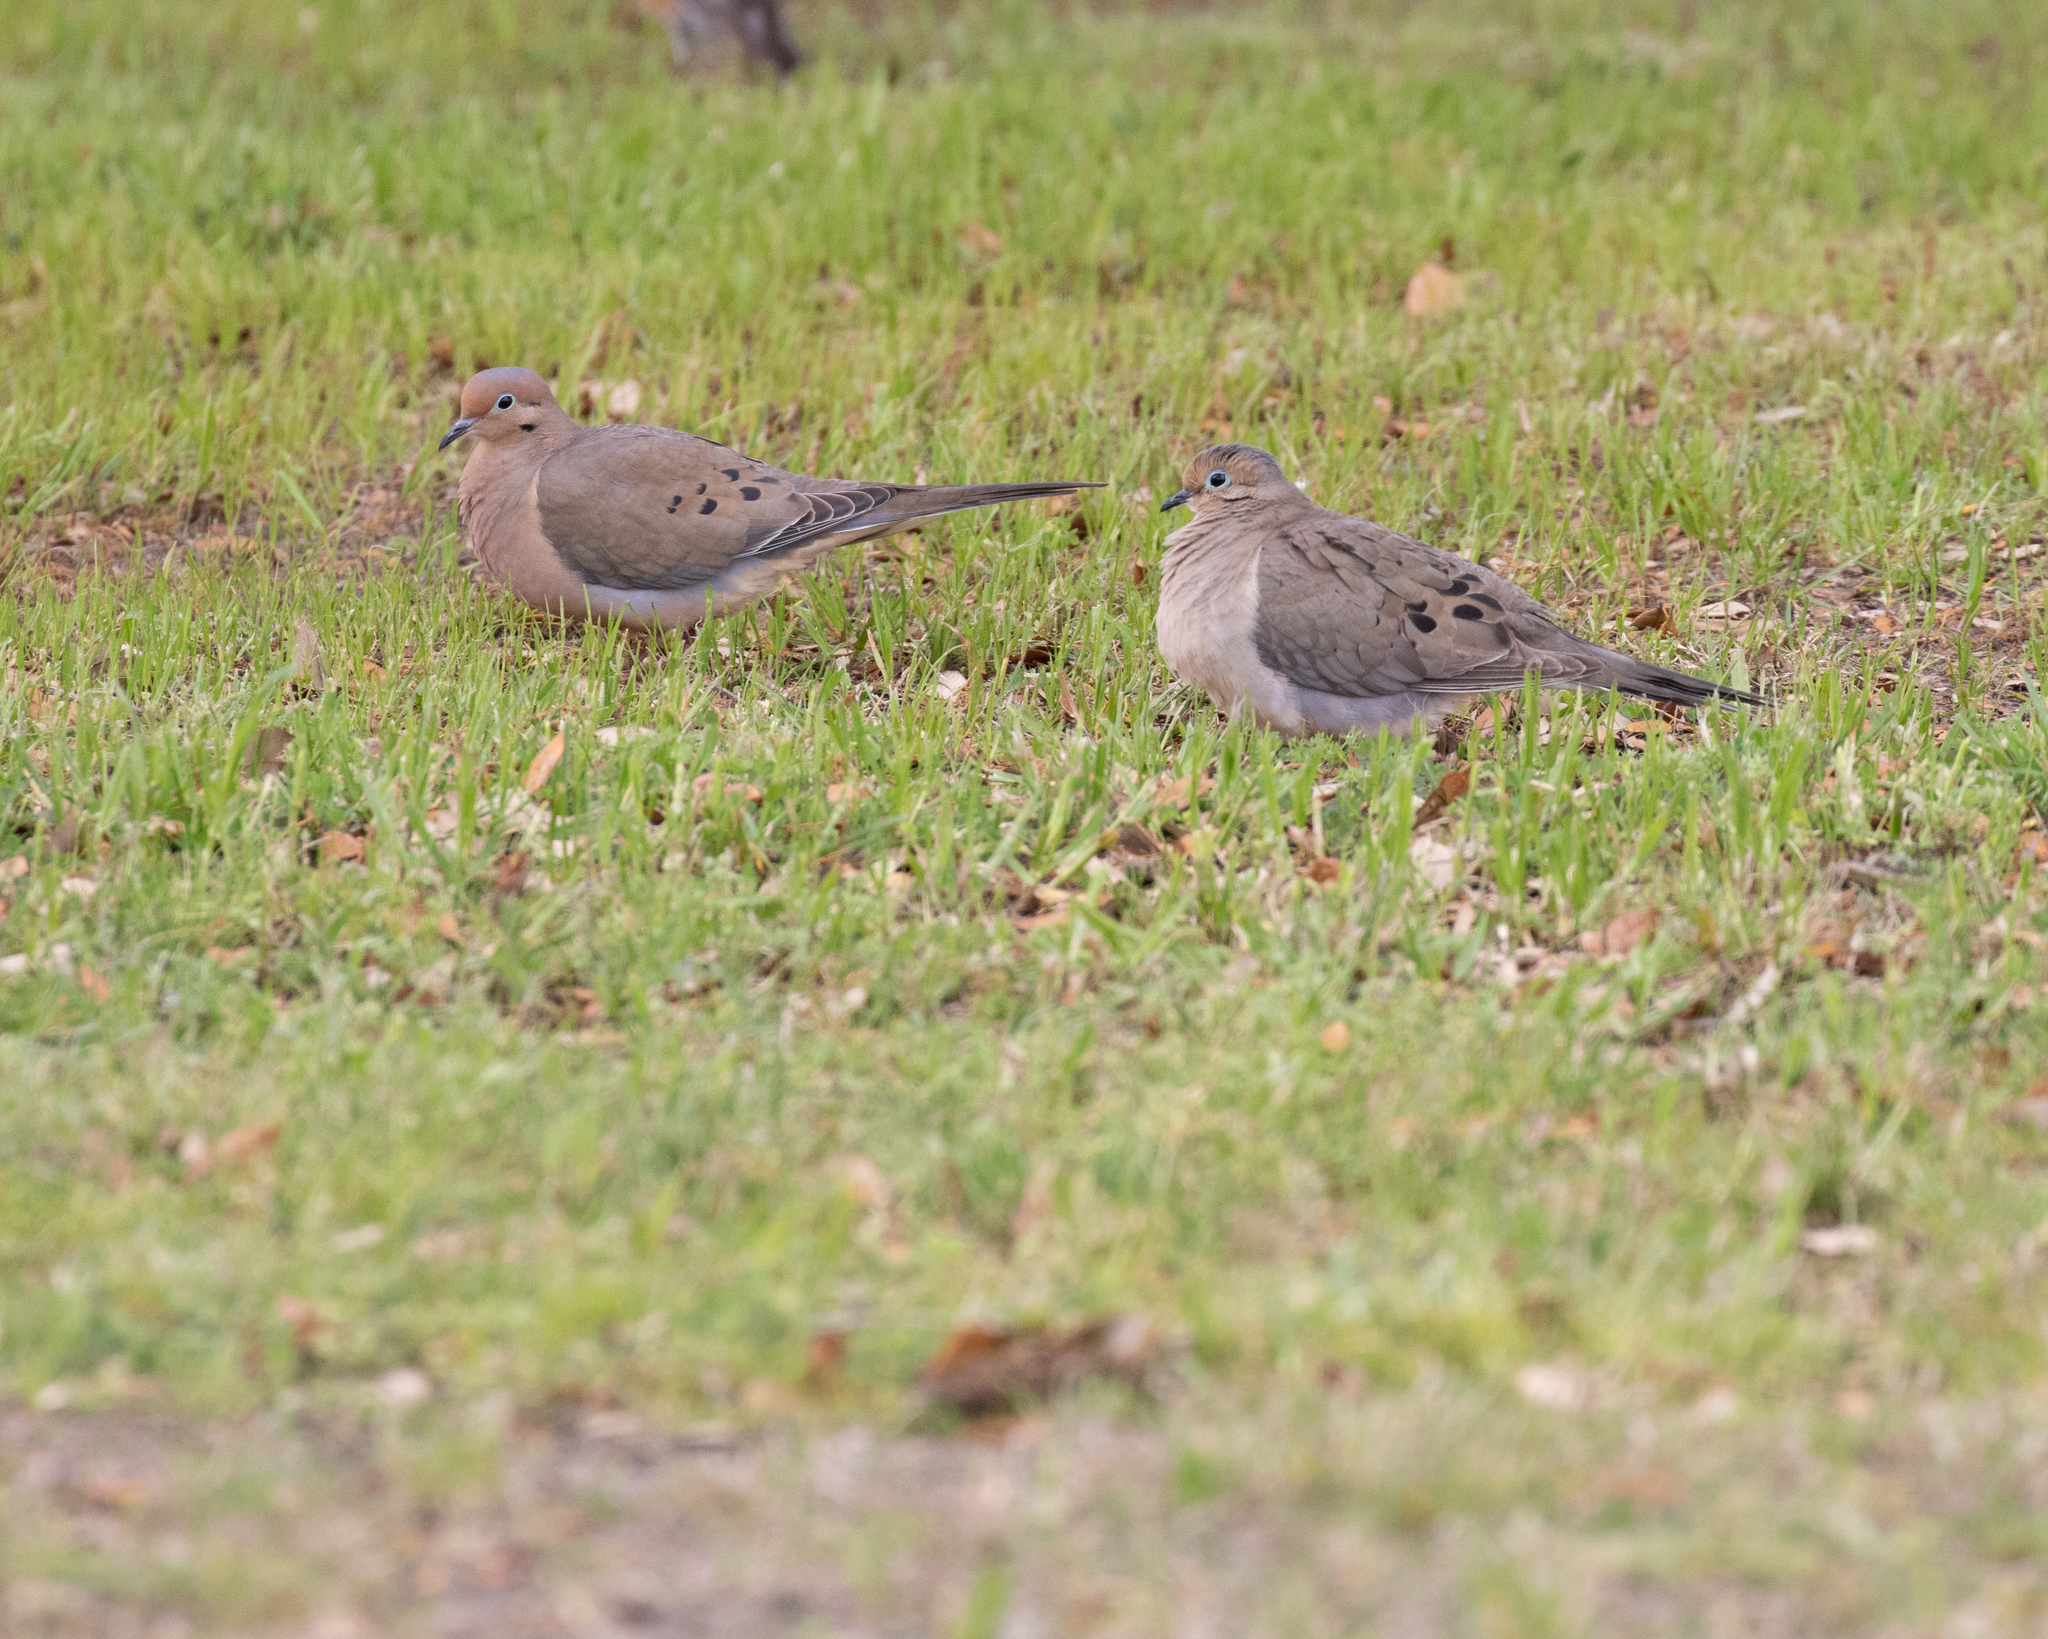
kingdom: Animalia
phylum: Chordata
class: Aves
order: Columbiformes
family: Columbidae
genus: Zenaida
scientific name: Zenaida macroura
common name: Mourning dove
